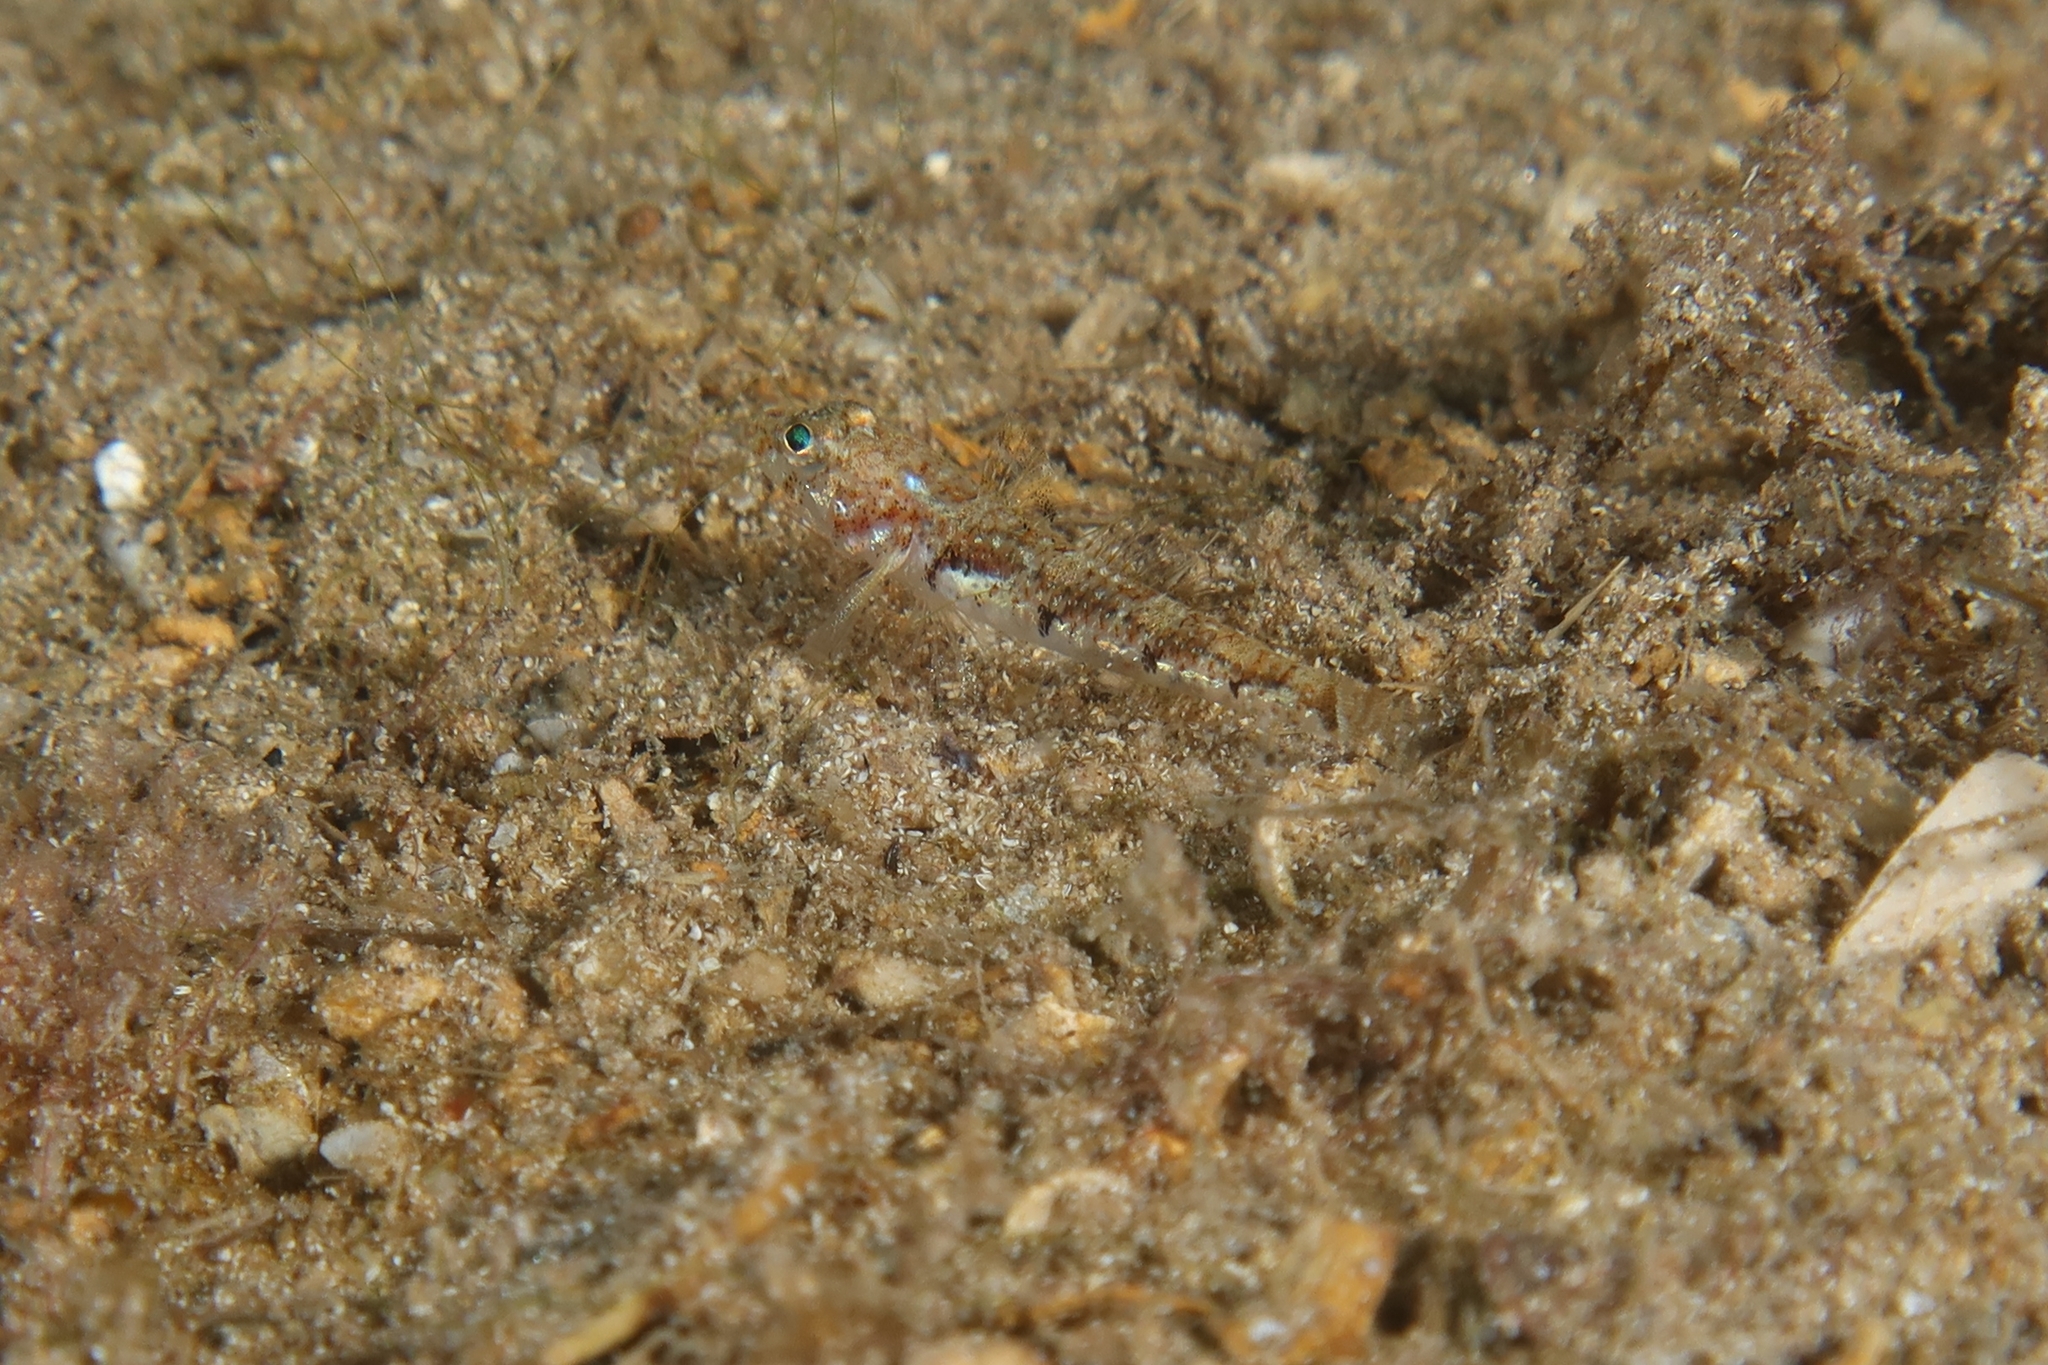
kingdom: Animalia
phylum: Chordata
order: Perciformes
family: Gobiidae
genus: Buenia
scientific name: Buenia affinis
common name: De buen's goby
